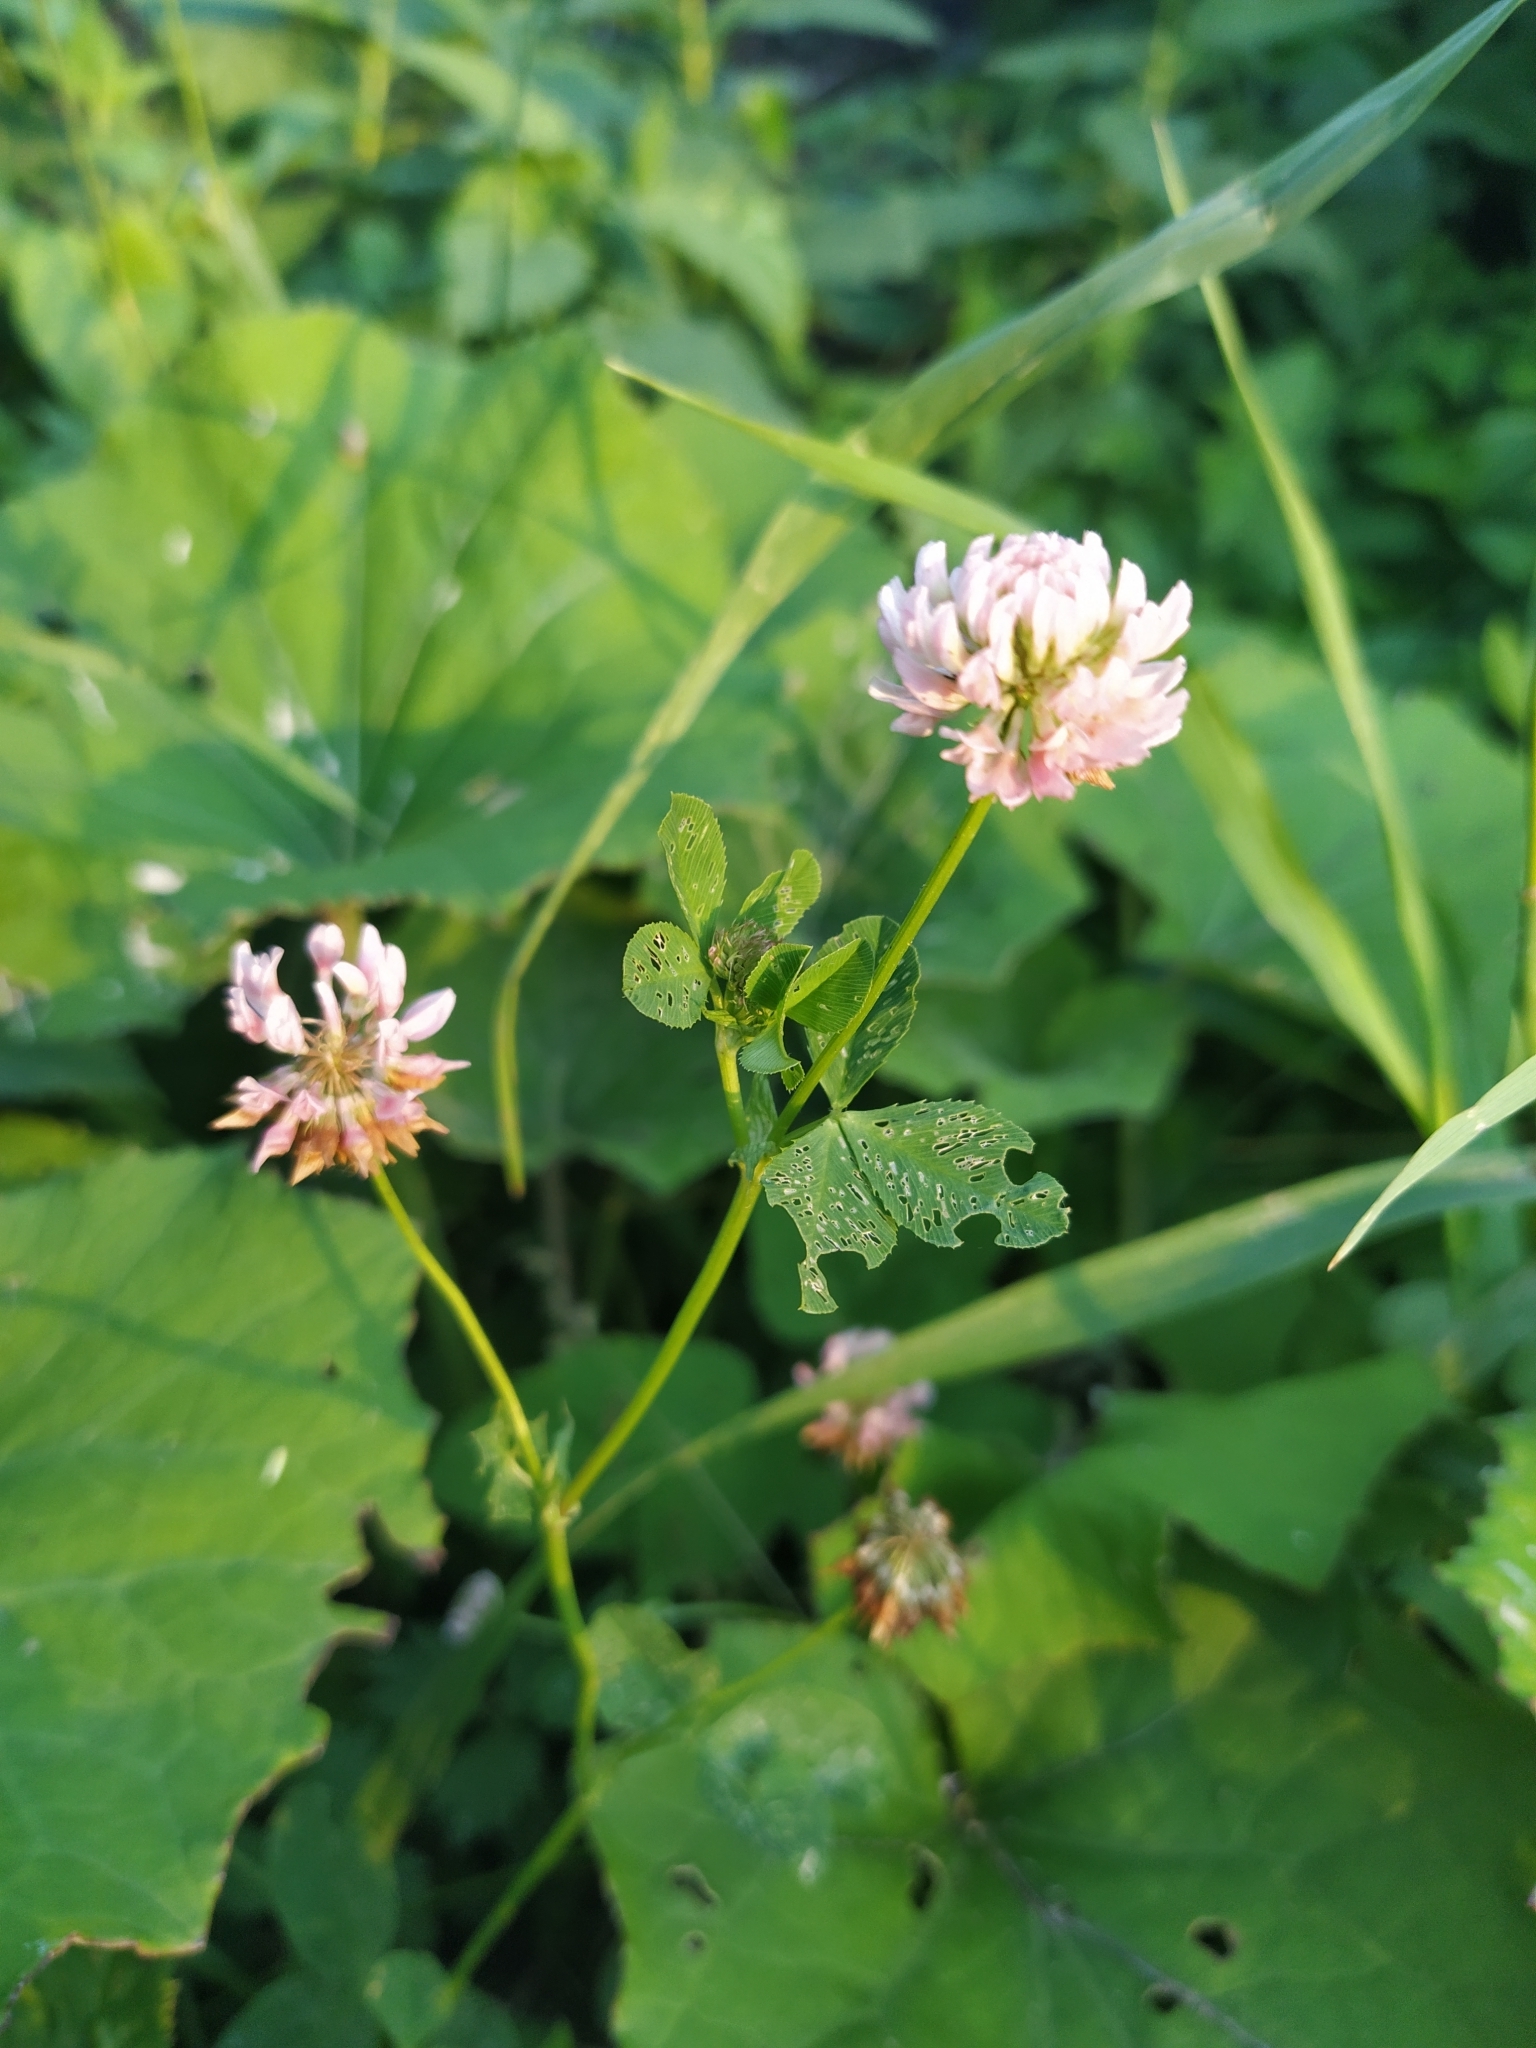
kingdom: Plantae
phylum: Tracheophyta
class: Magnoliopsida
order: Fabales
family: Fabaceae
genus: Trifolium
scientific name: Trifolium hybridum
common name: Alsike clover
